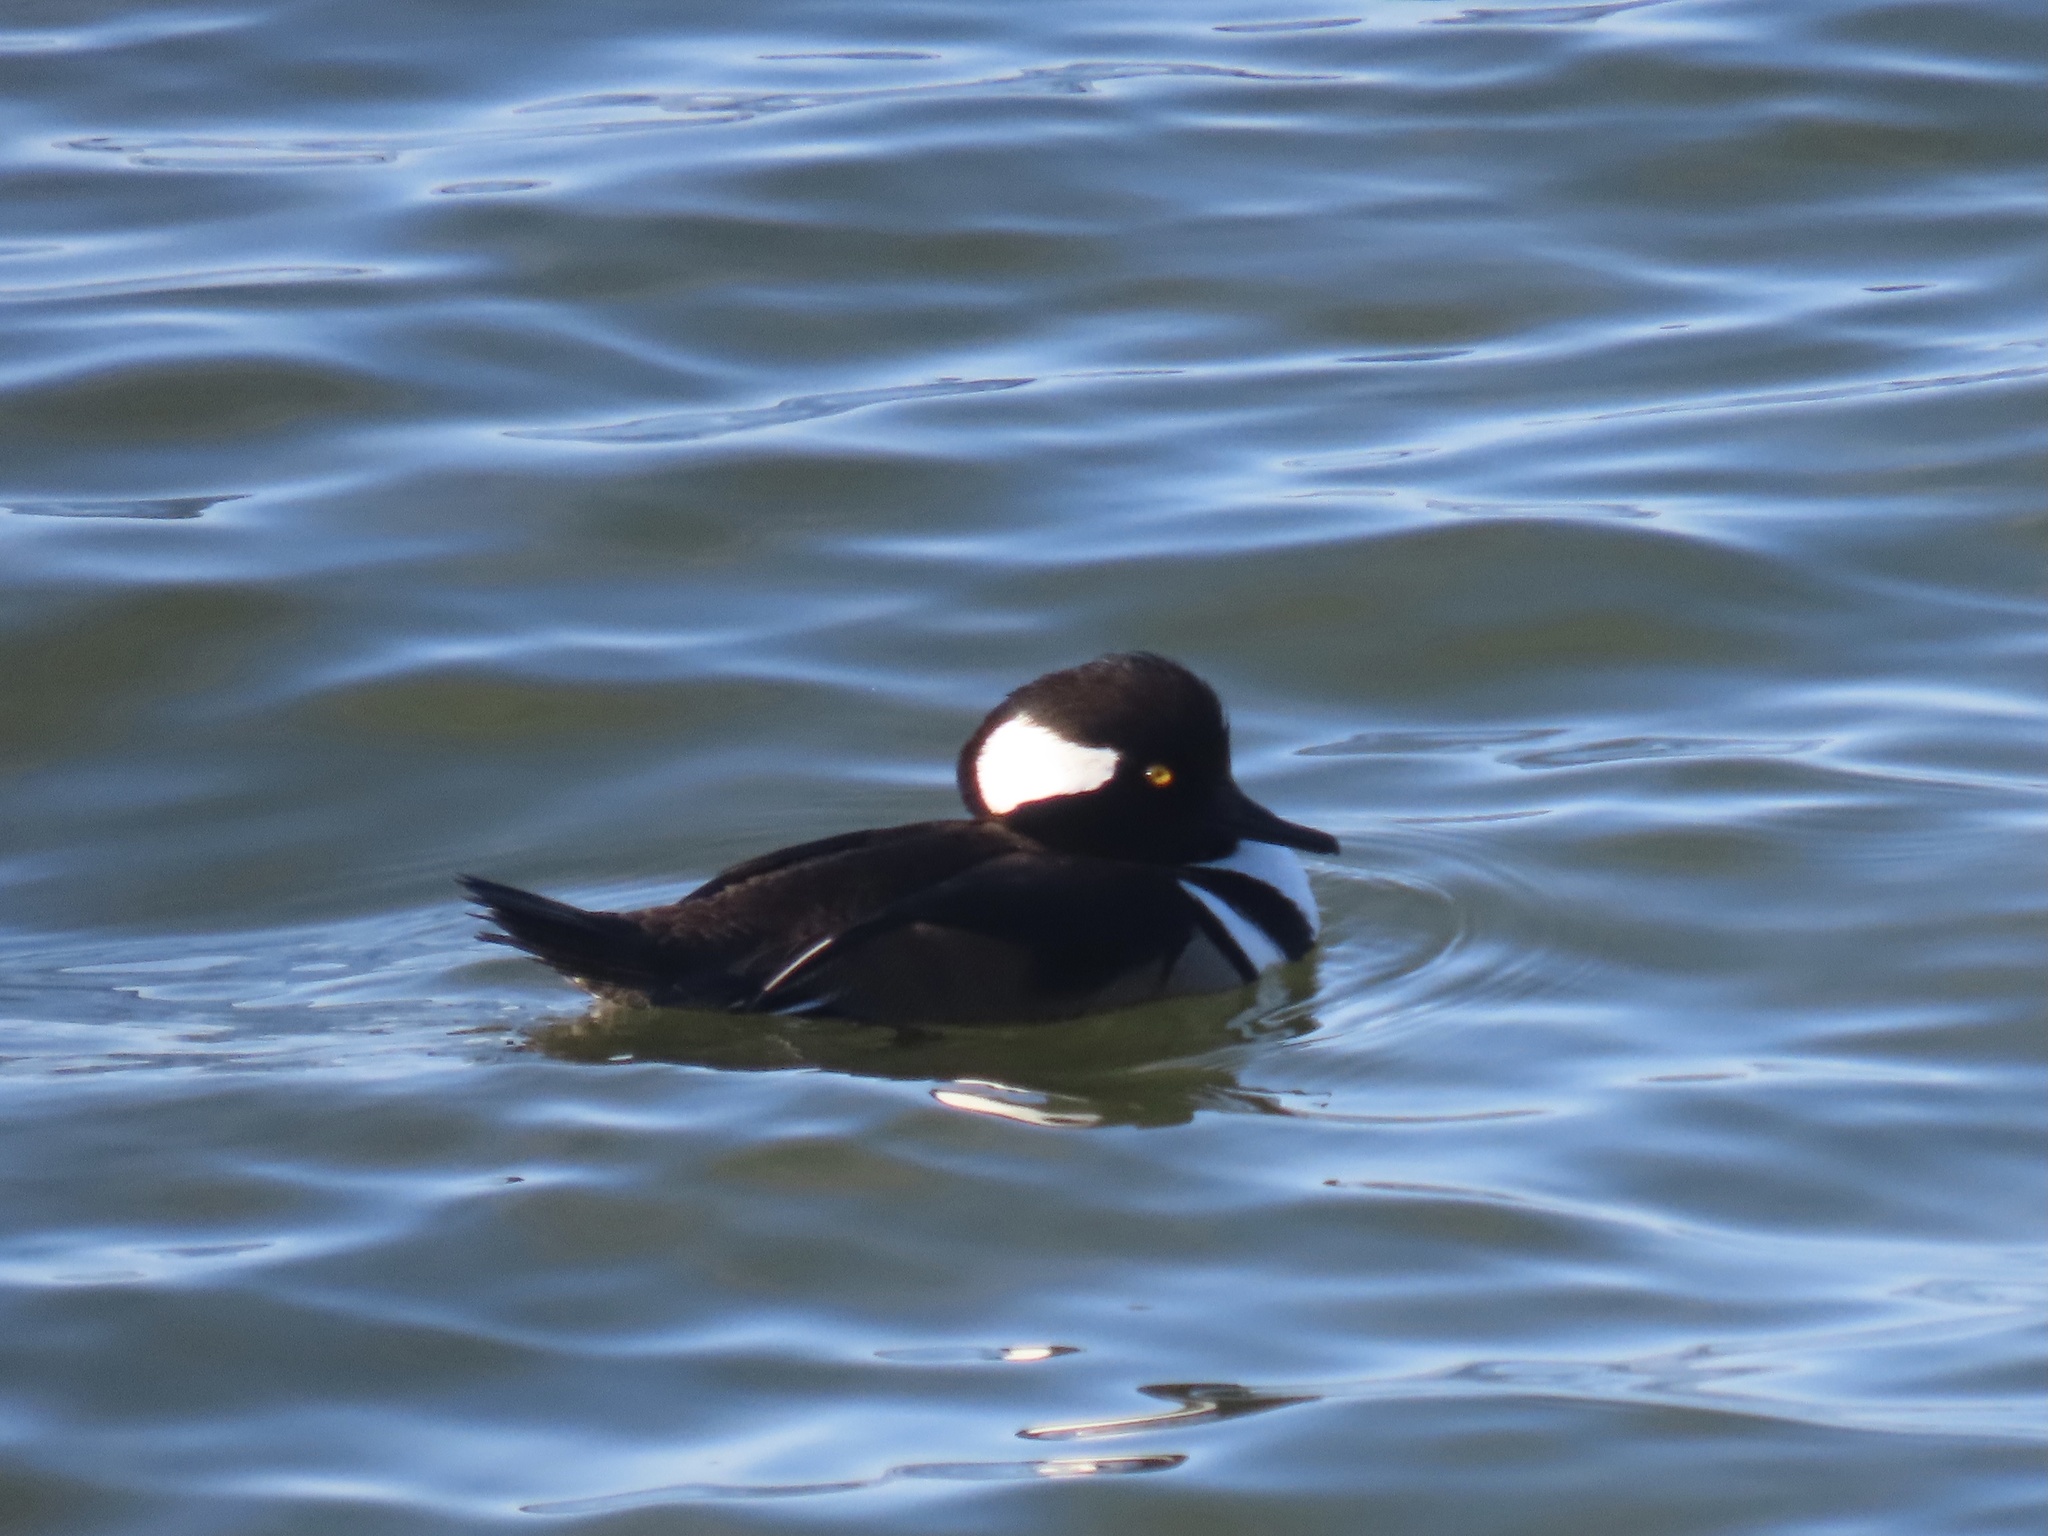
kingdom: Animalia
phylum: Chordata
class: Aves
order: Anseriformes
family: Anatidae
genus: Lophodytes
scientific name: Lophodytes cucullatus
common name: Hooded merganser
